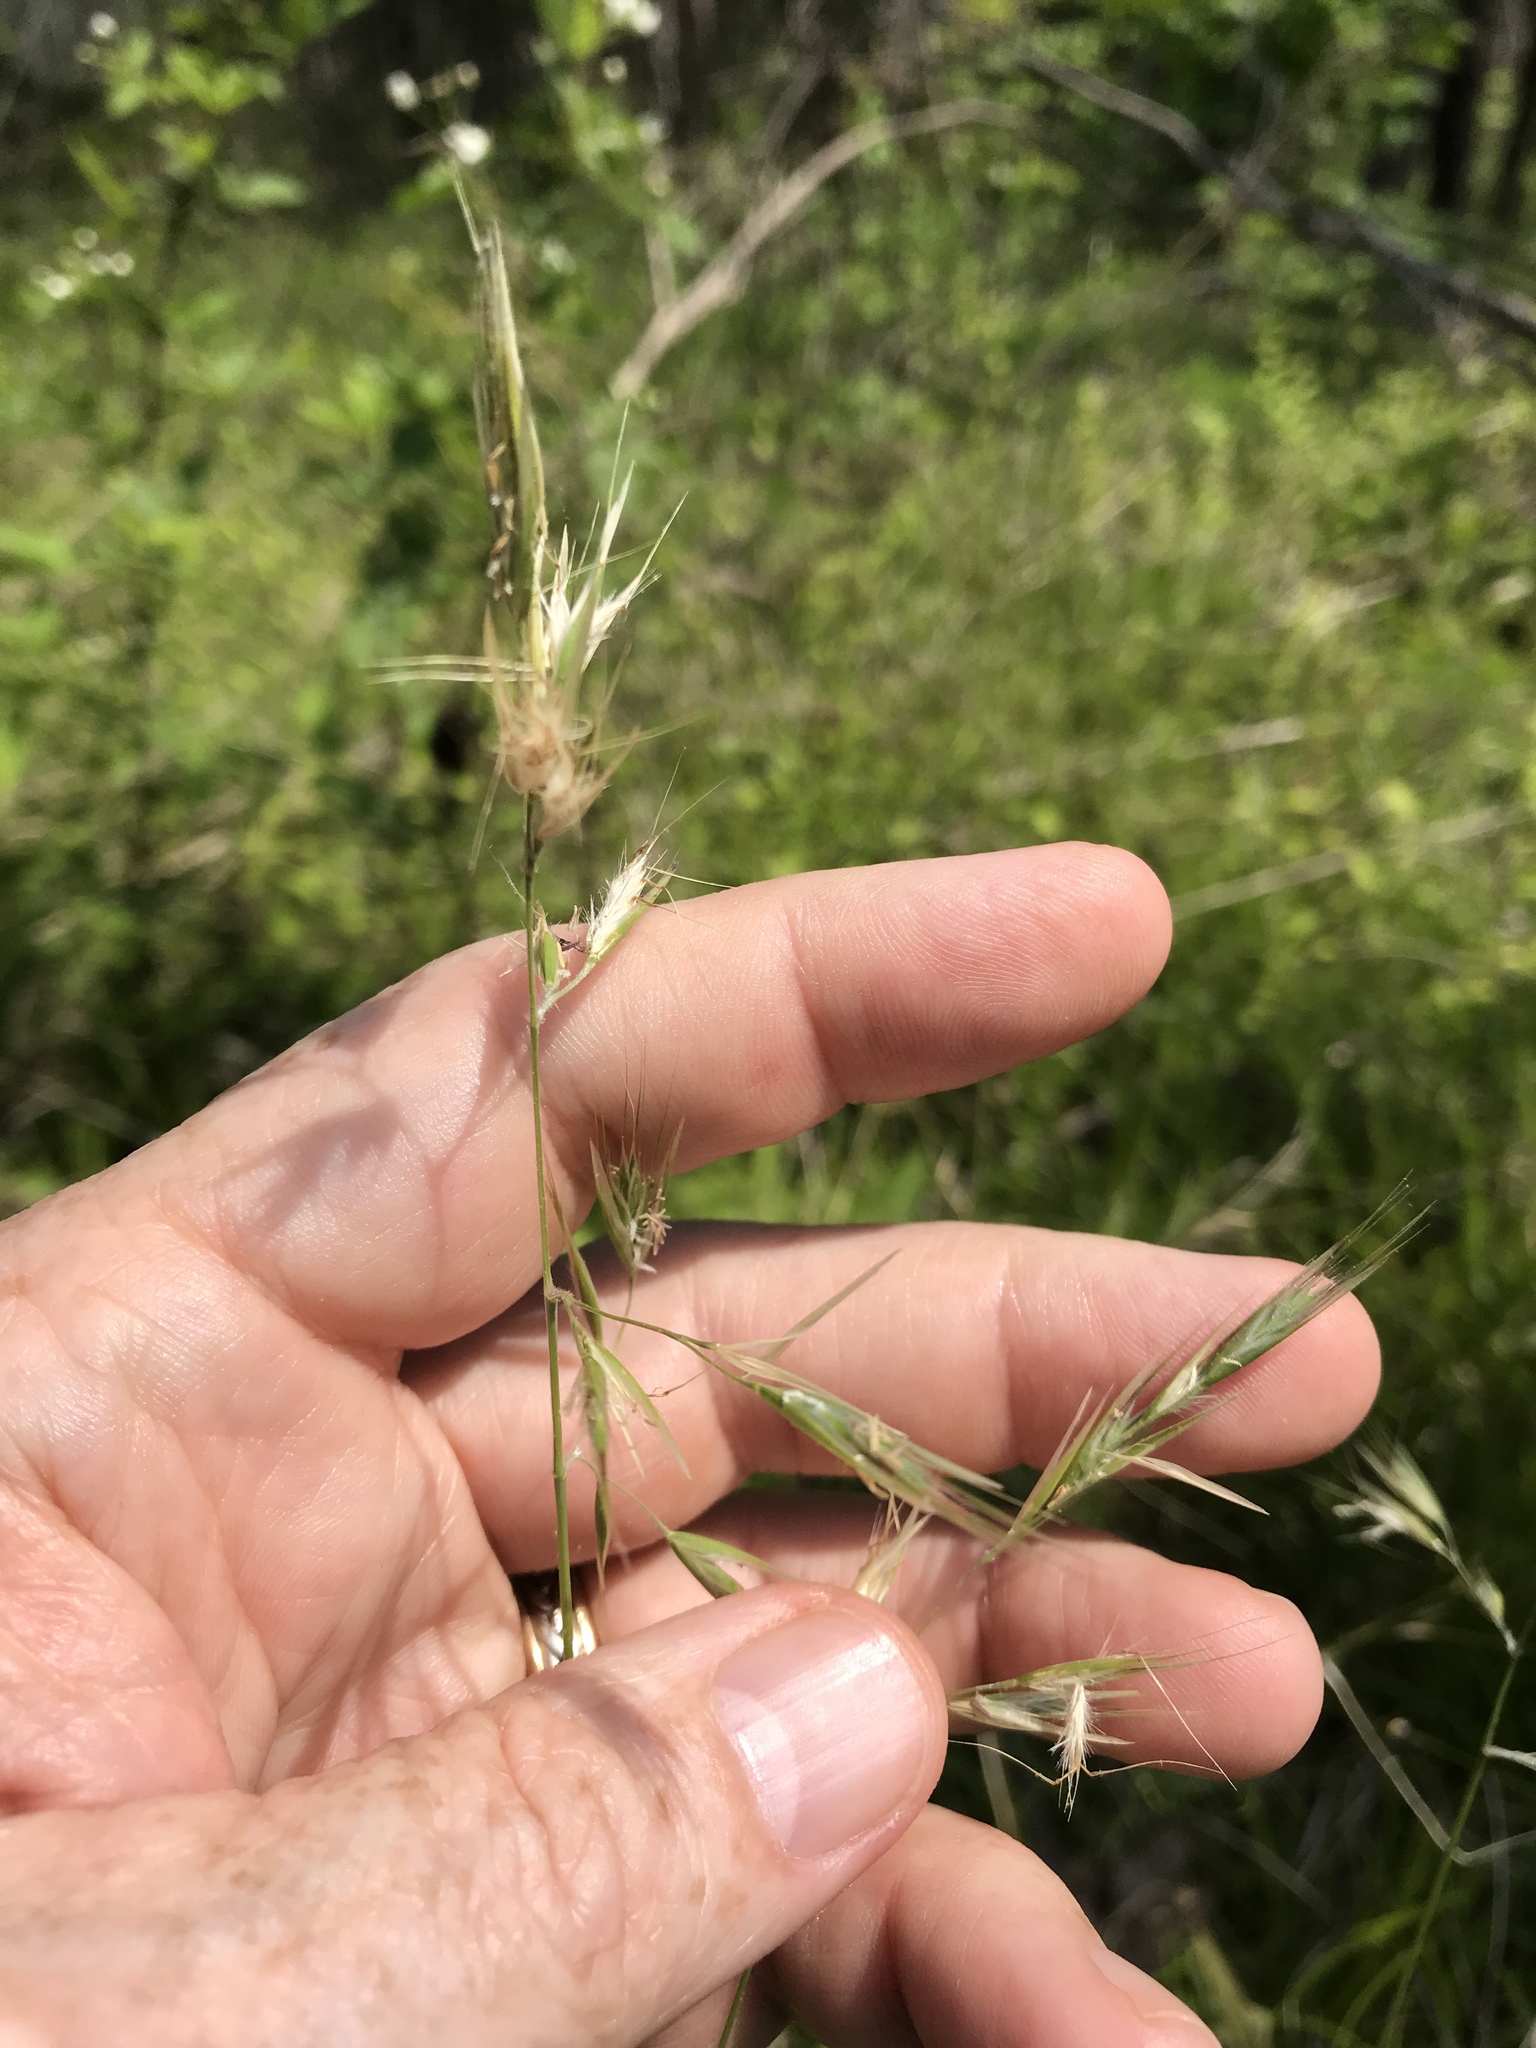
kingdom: Plantae
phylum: Tracheophyta
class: Liliopsida
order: Poales
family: Poaceae
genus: Danthonia
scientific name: Danthonia sericea
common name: Downy danthonia
